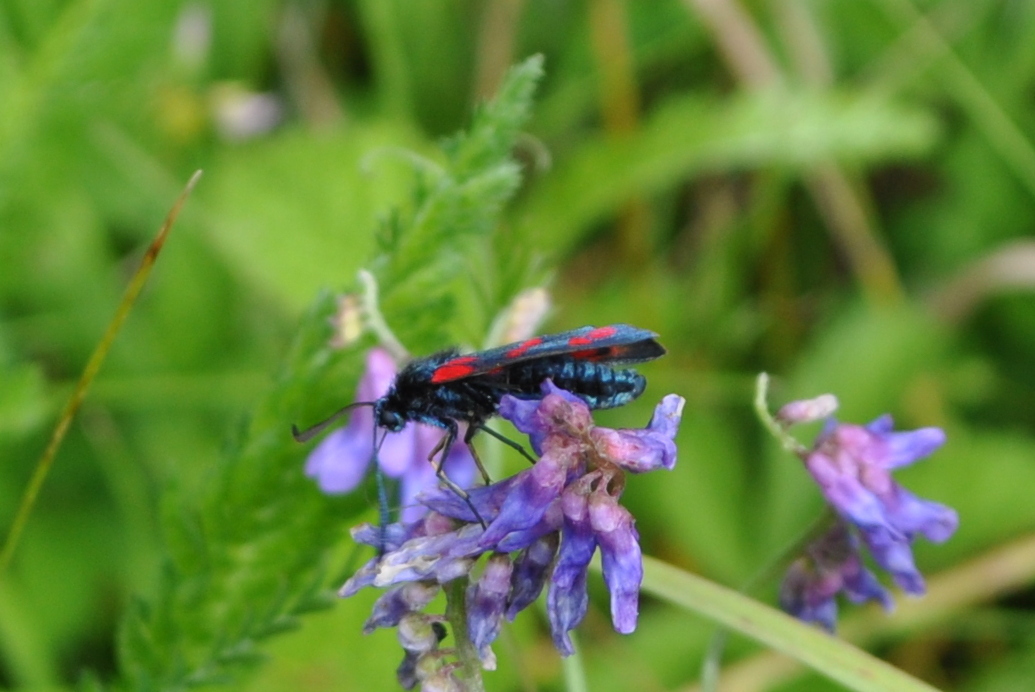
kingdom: Animalia
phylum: Arthropoda
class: Insecta
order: Lepidoptera
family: Zygaenidae
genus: Zygaena
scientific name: Zygaena filipendulae
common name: Six-spot burnet
